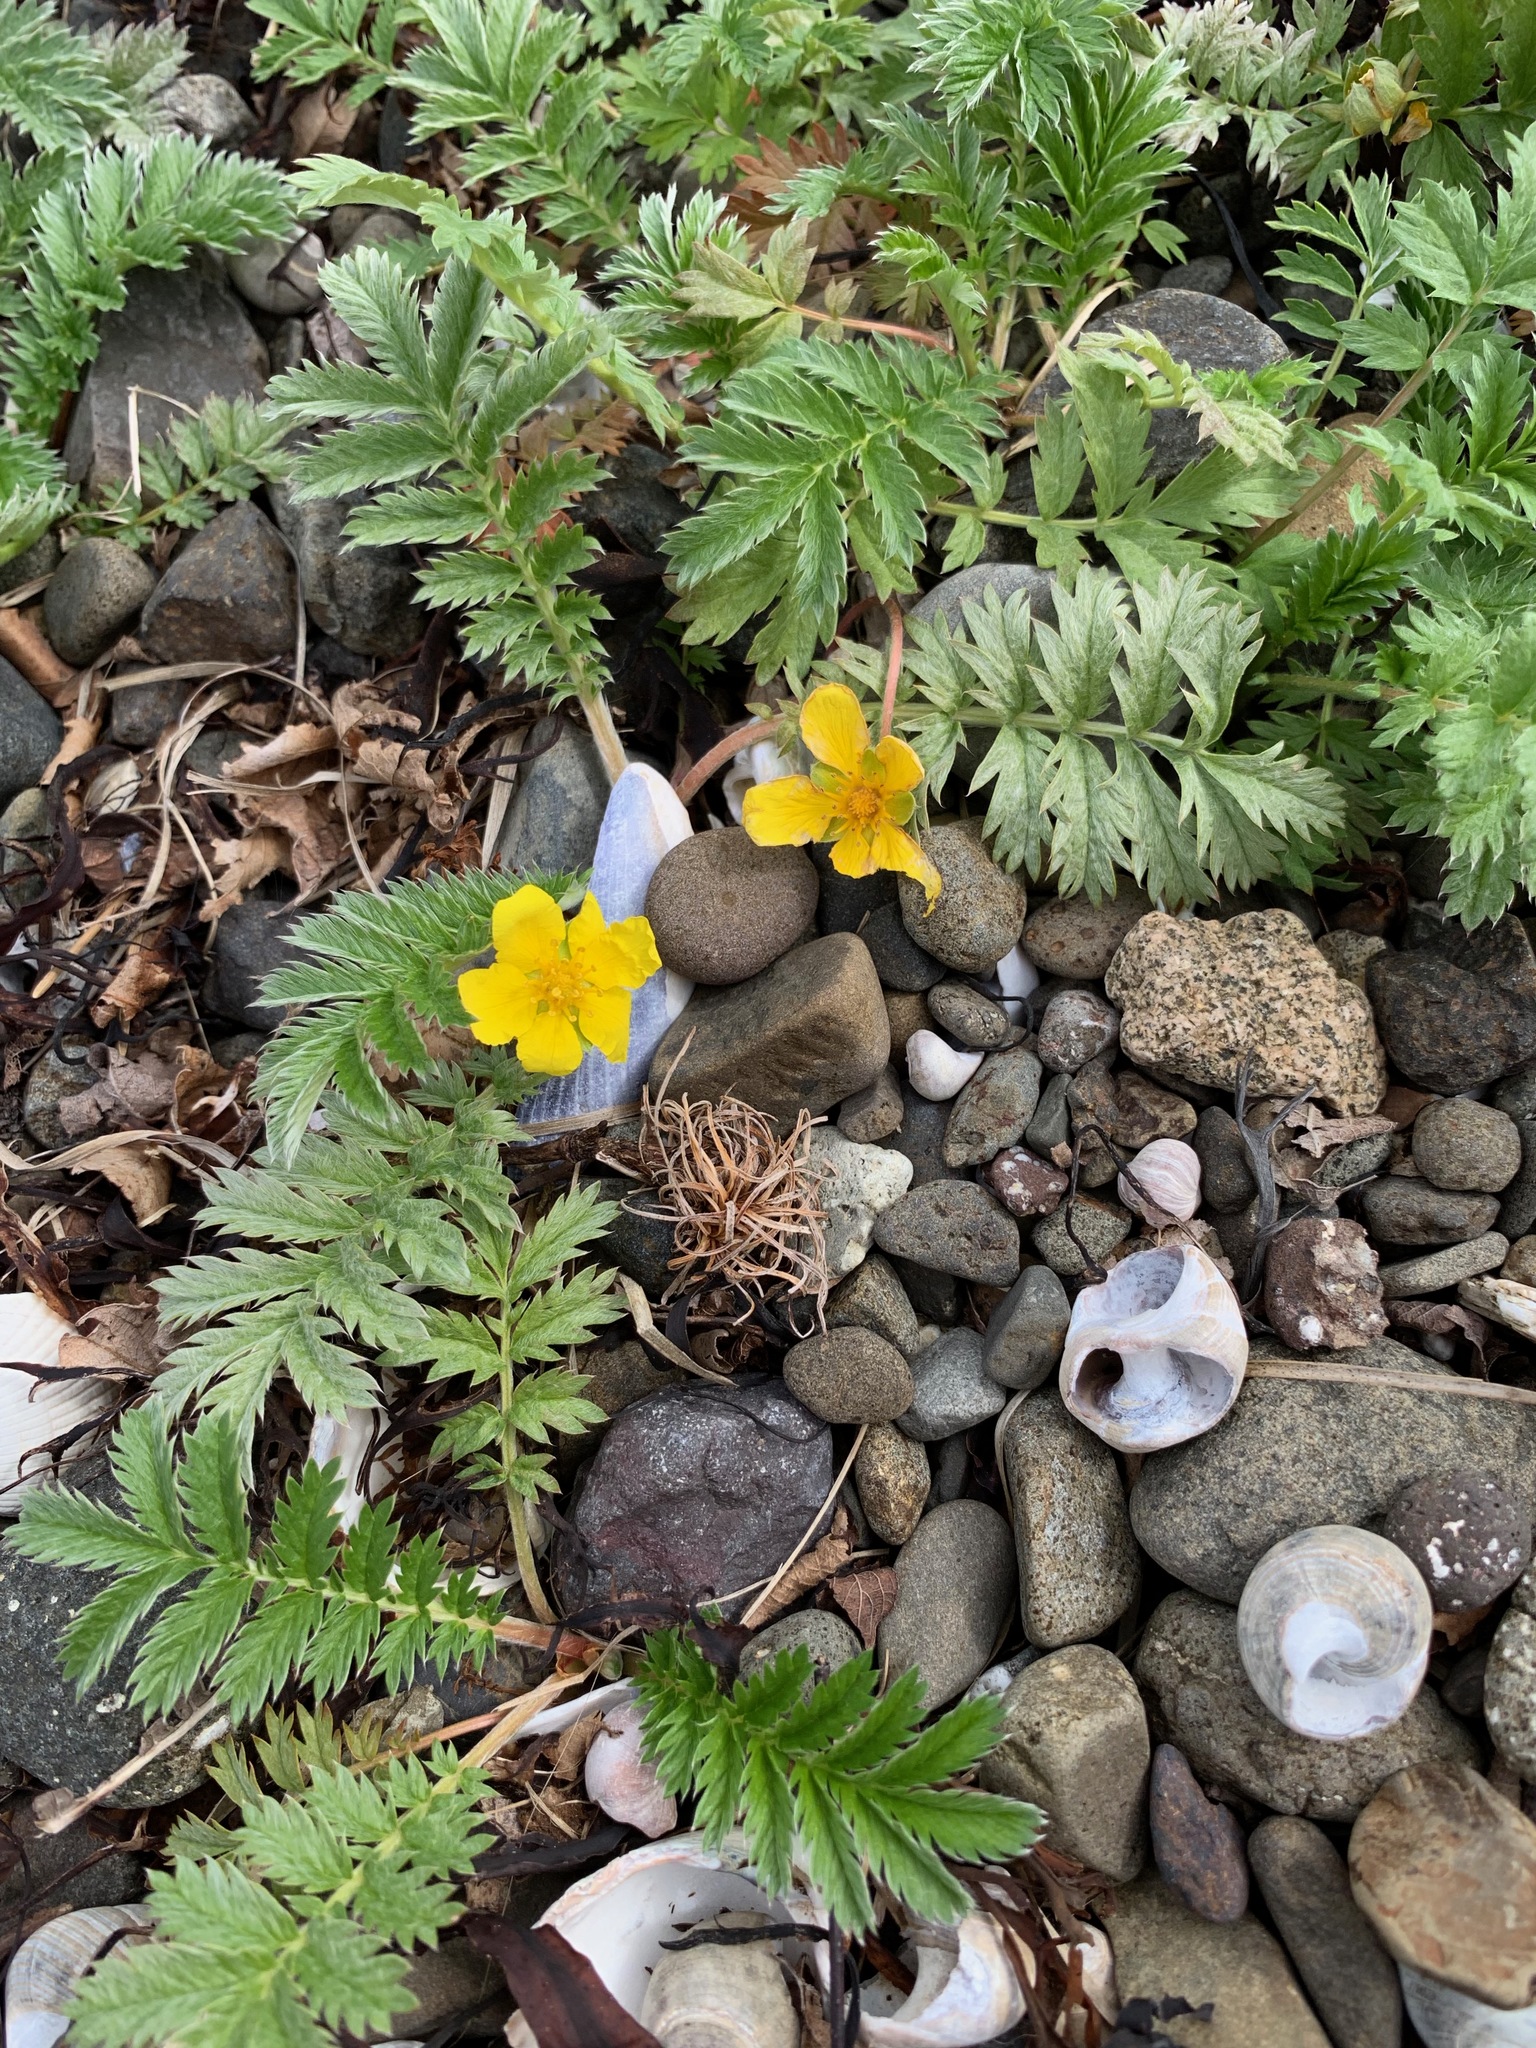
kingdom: Plantae
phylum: Tracheophyta
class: Magnoliopsida
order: Rosales
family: Rosaceae
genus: Argentina
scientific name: Argentina anserina
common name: Common silverweed
